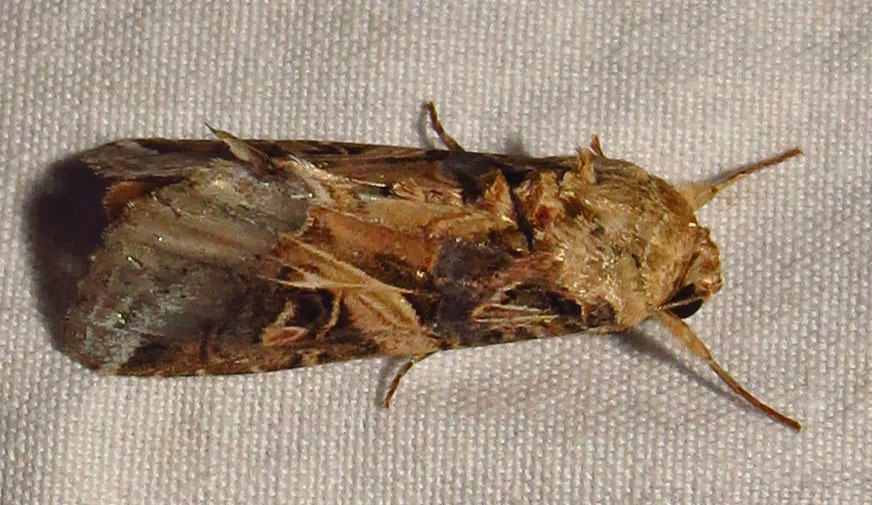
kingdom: Animalia
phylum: Arthropoda
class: Insecta
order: Lepidoptera
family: Noctuidae
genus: Spodoptera
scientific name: Spodoptera ornithogalli
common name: Yellow-striped armyworm
